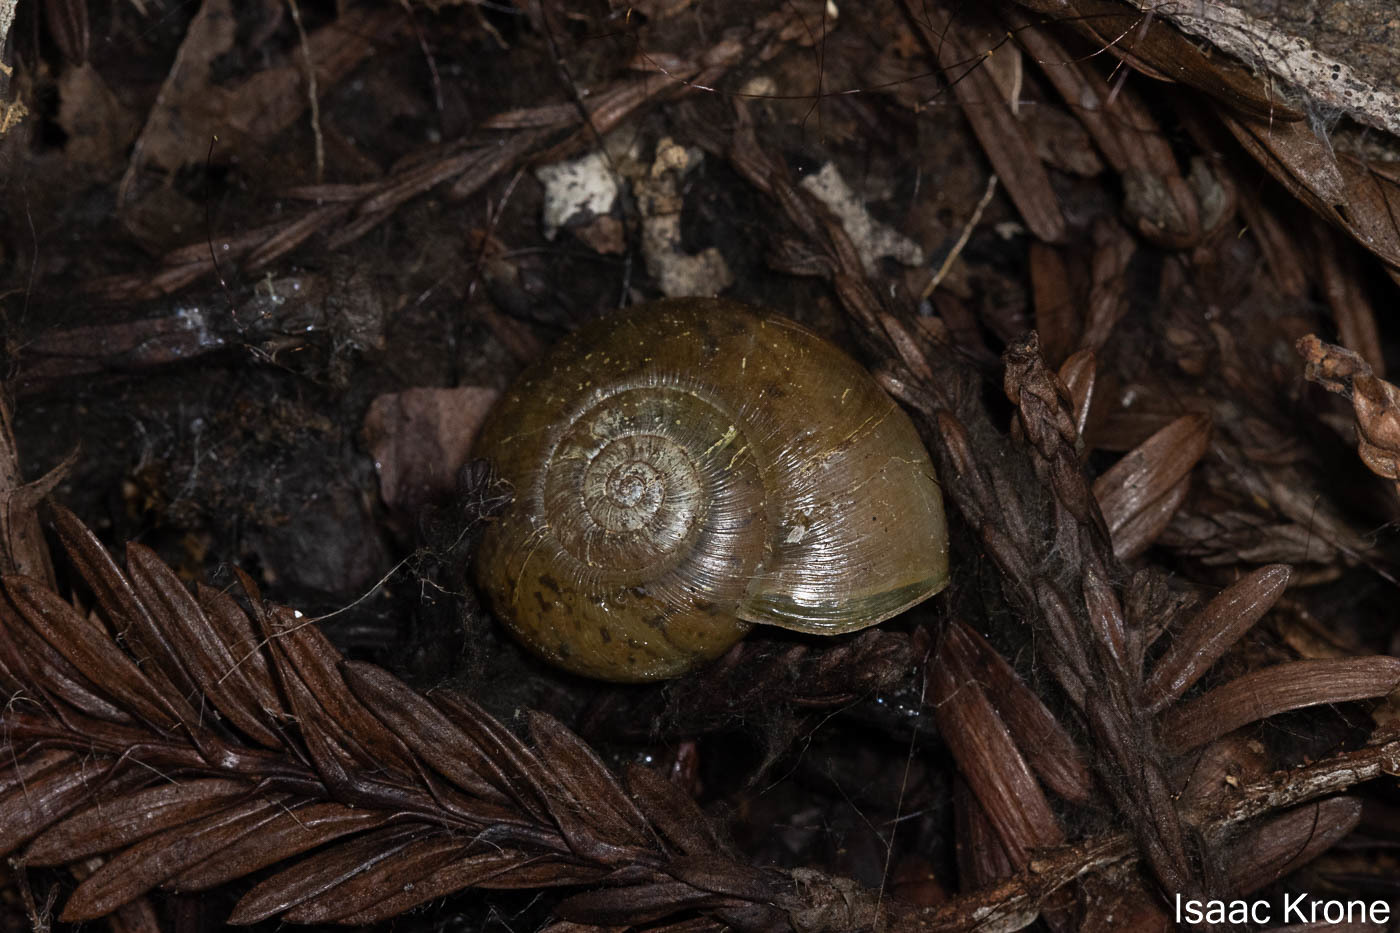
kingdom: Animalia
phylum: Mollusca
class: Gastropoda
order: Stylommatophora
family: Haplotrematidae
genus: Haplotrema
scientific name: Haplotrema minimum
